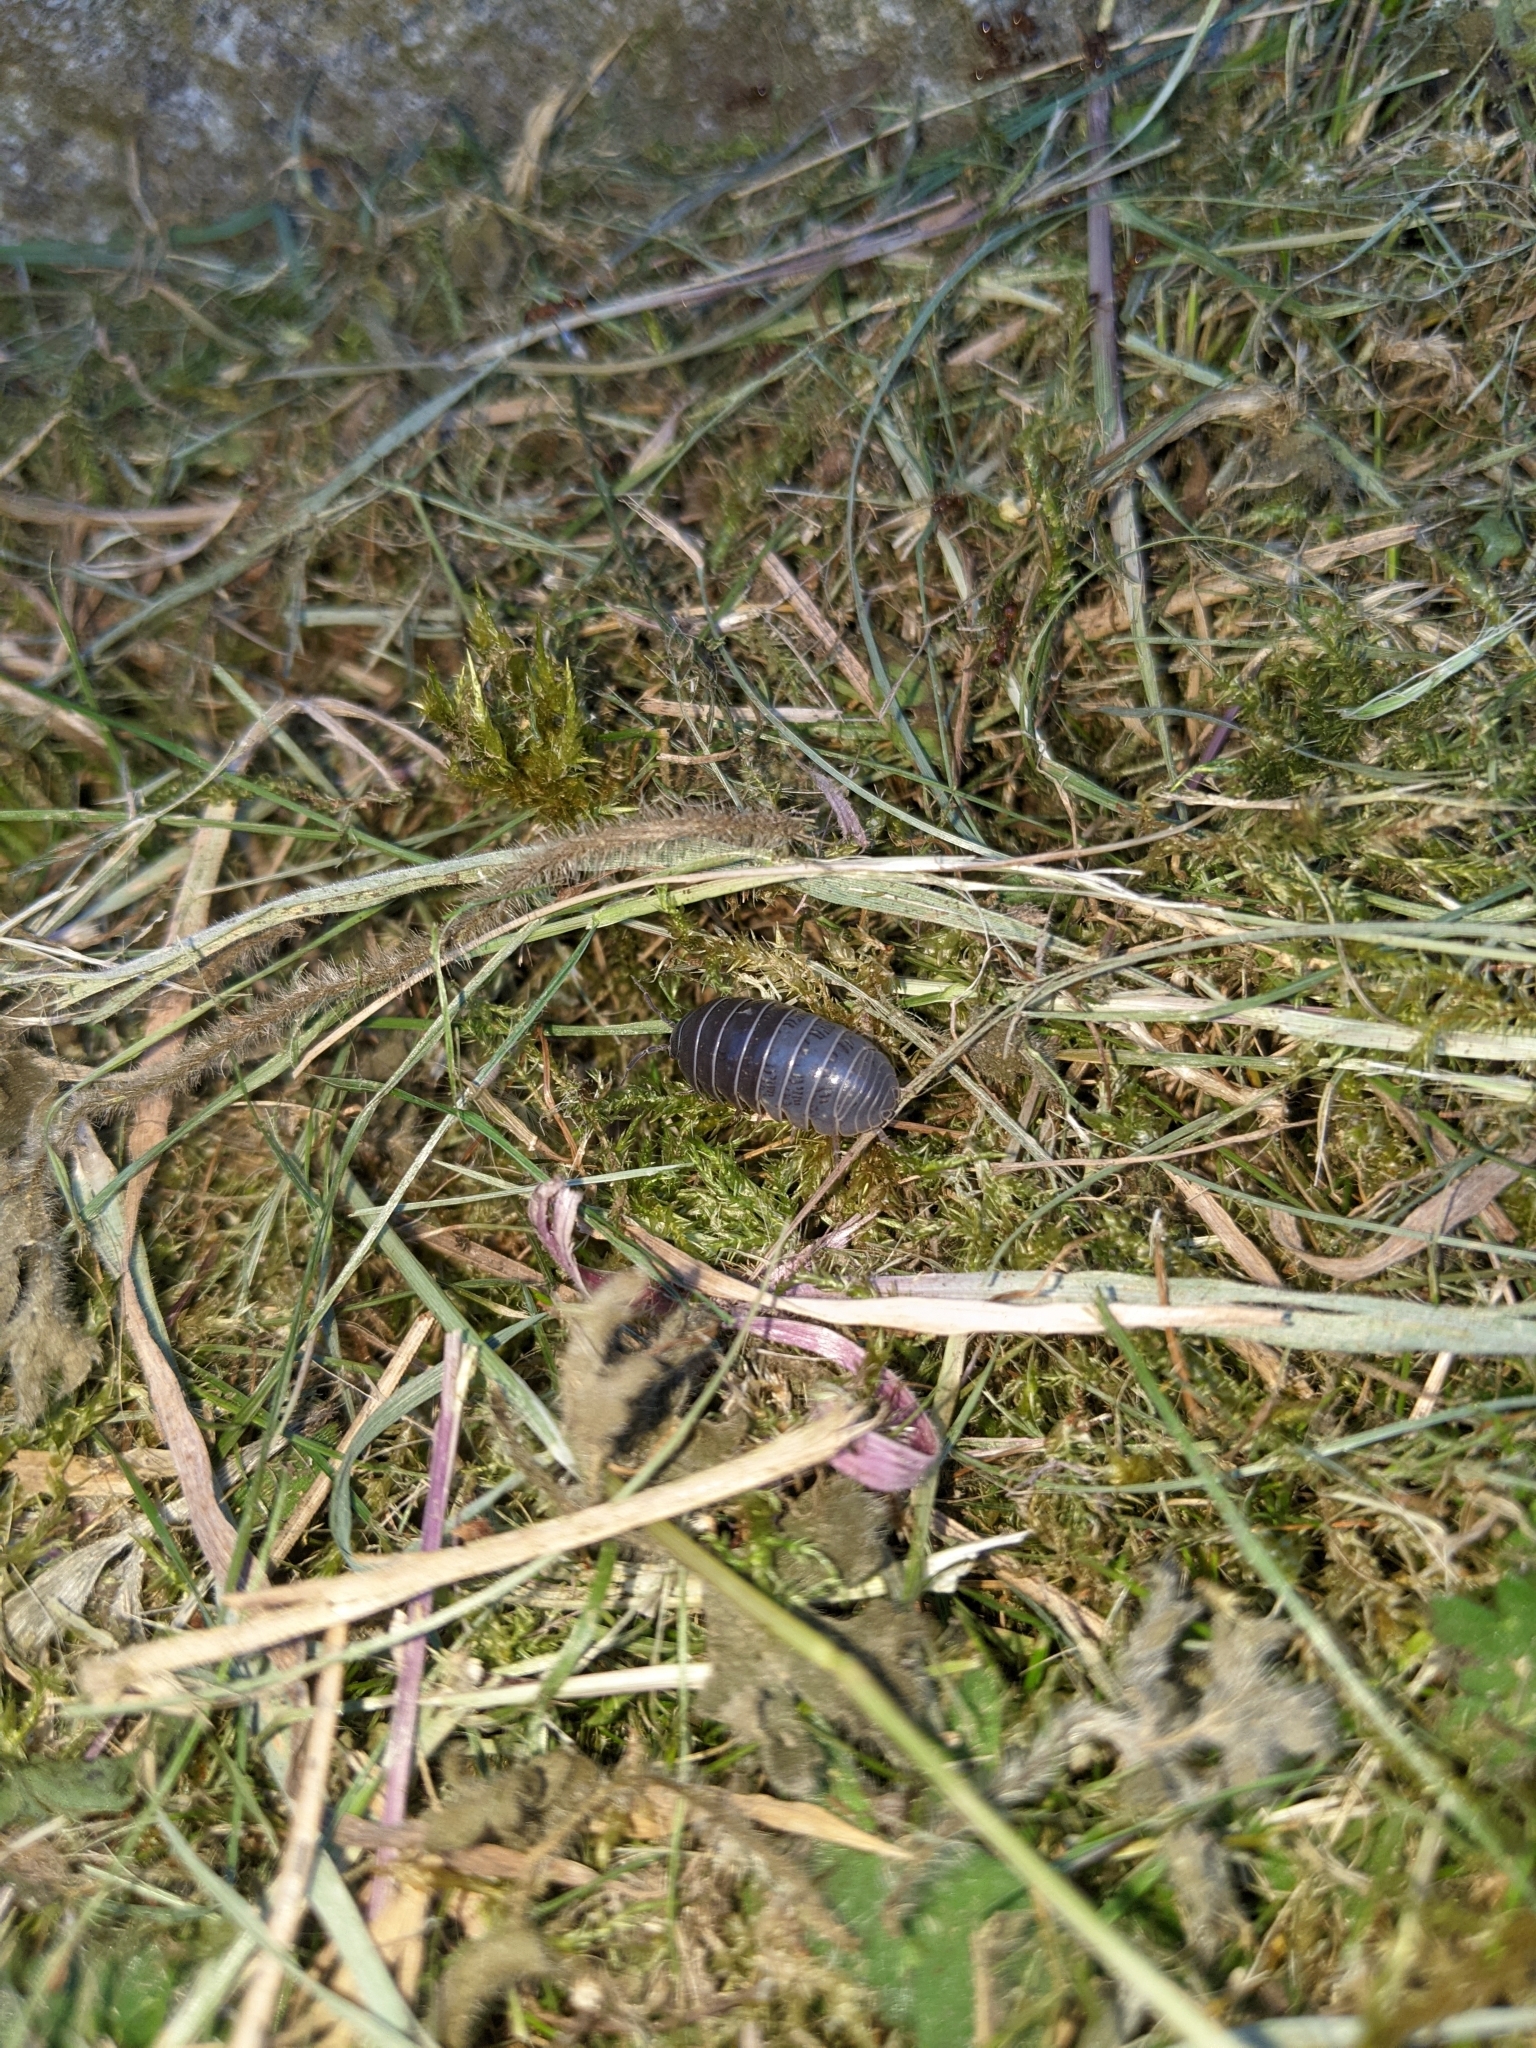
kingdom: Animalia
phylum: Arthropoda
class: Malacostraca
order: Isopoda
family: Armadillidiidae
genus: Armadillidium
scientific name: Armadillidium vulgare
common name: Common pill woodlouse
